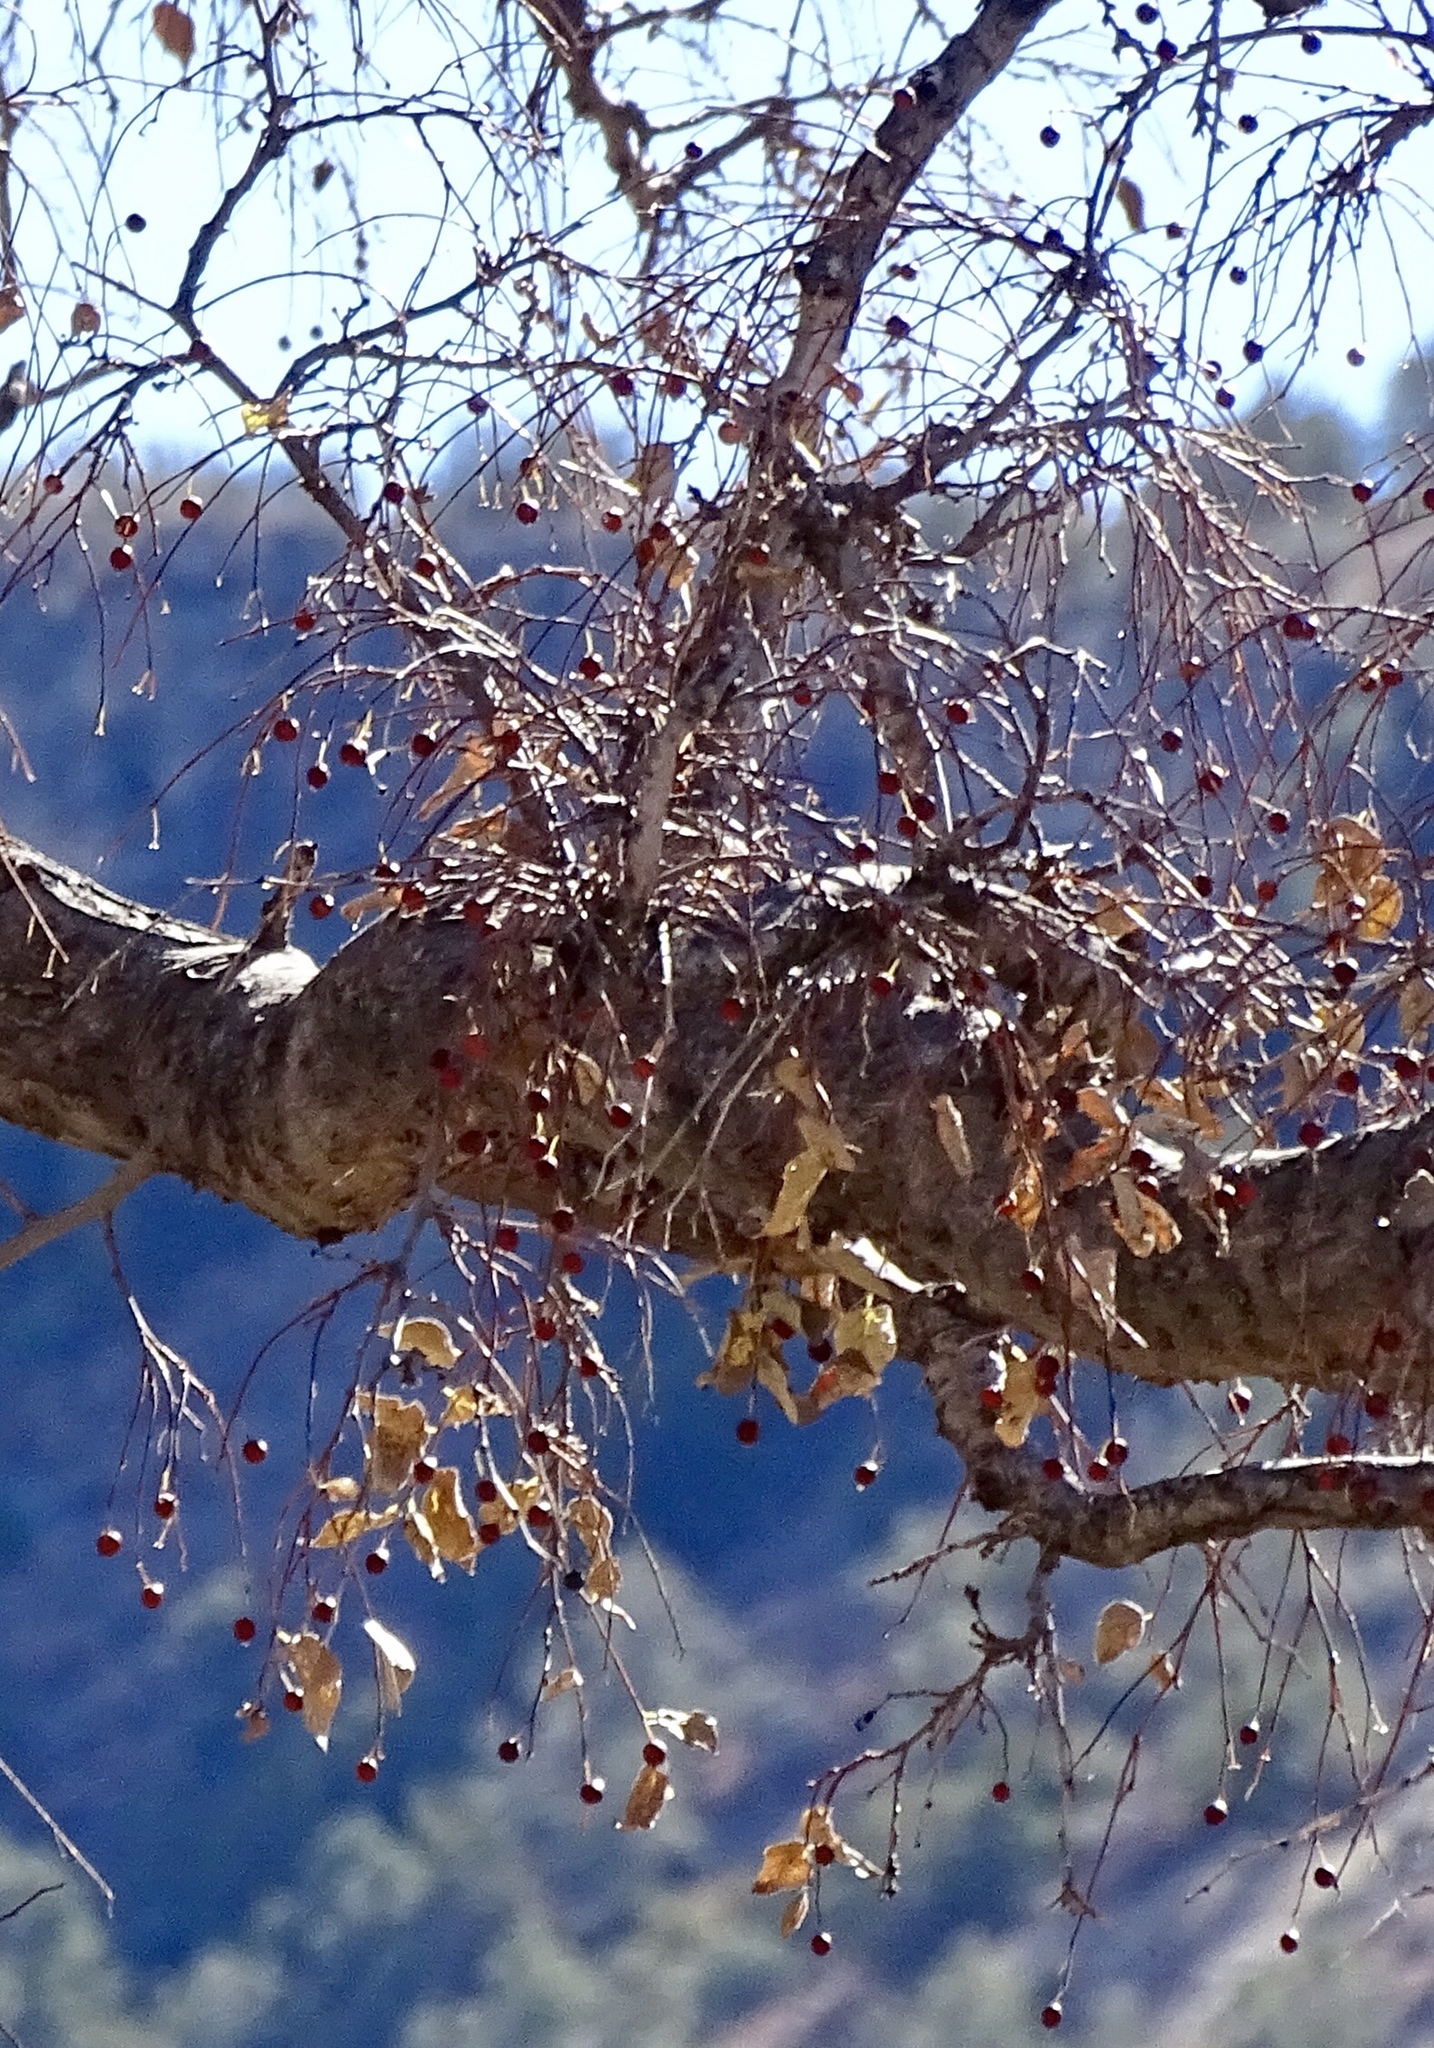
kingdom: Plantae
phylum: Tracheophyta
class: Magnoliopsida
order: Sapindales
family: Sapindaceae
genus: Sapindus
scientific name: Sapindus drummondii
